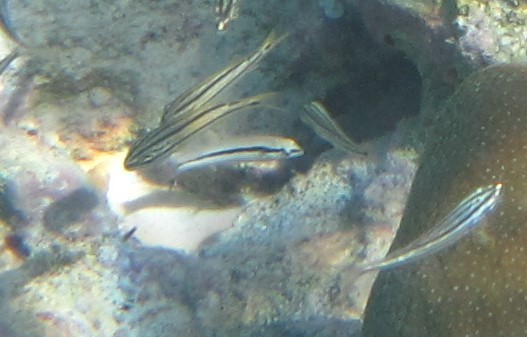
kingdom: Animalia
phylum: Chordata
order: Perciformes
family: Labridae
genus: Halichoeres
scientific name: Halichoeres bivittatus
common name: Slippery dick
